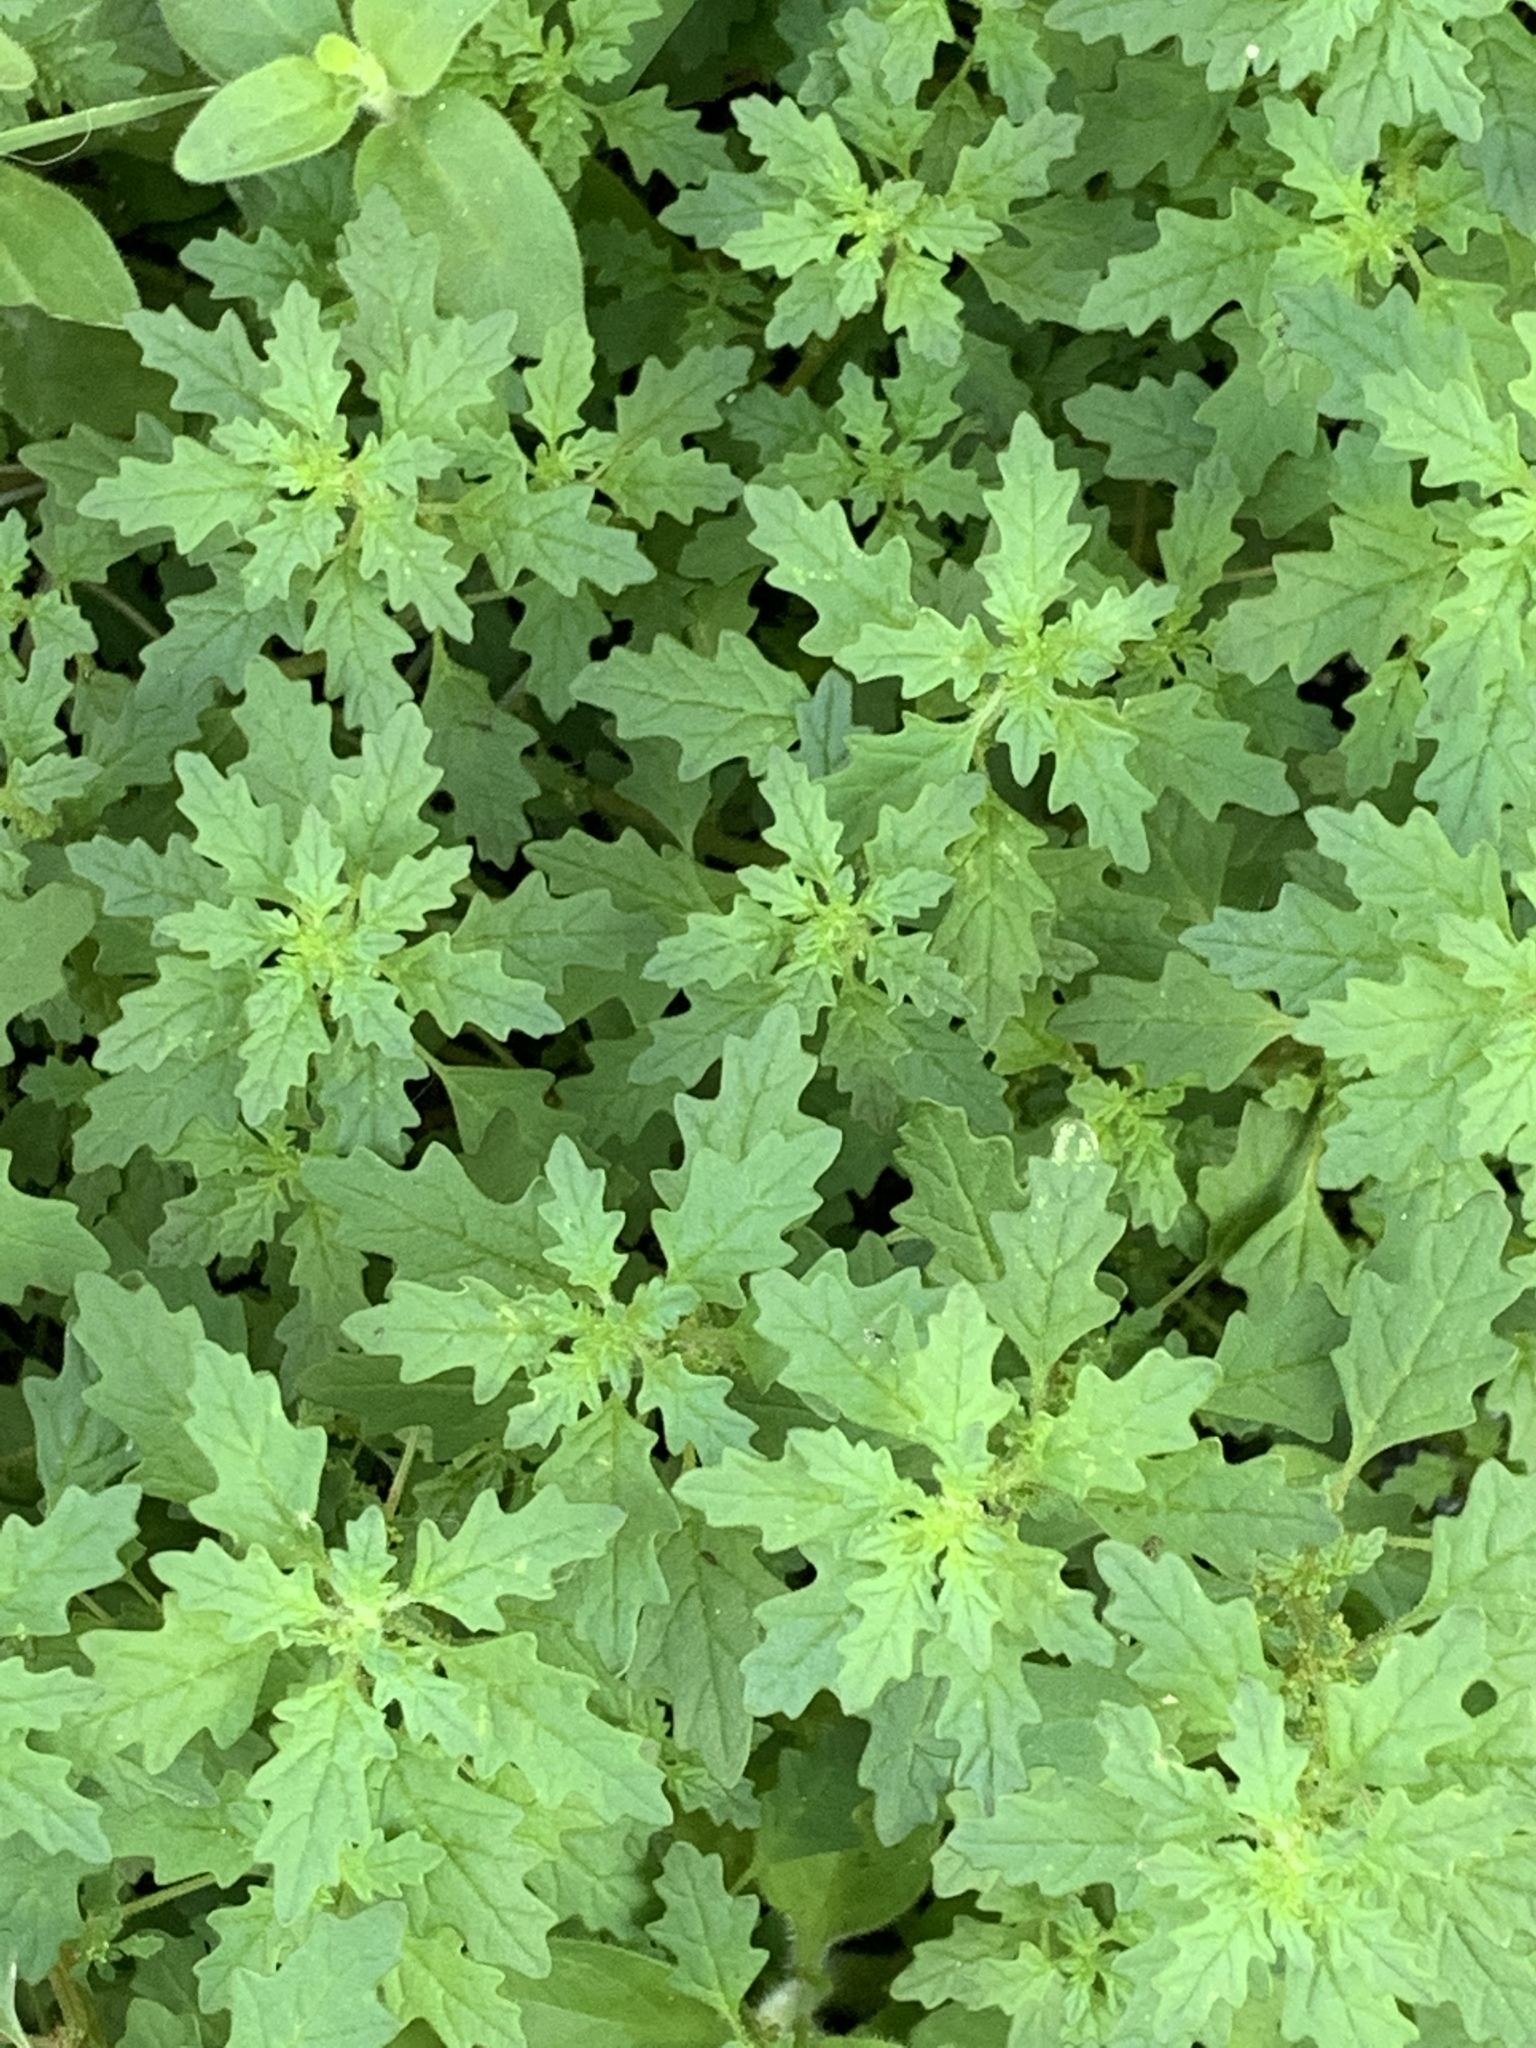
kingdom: Plantae
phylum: Tracheophyta
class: Magnoliopsida
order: Caryophyllales
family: Amaranthaceae
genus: Dysphania
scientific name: Dysphania pumilio
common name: Clammy goosefoot
